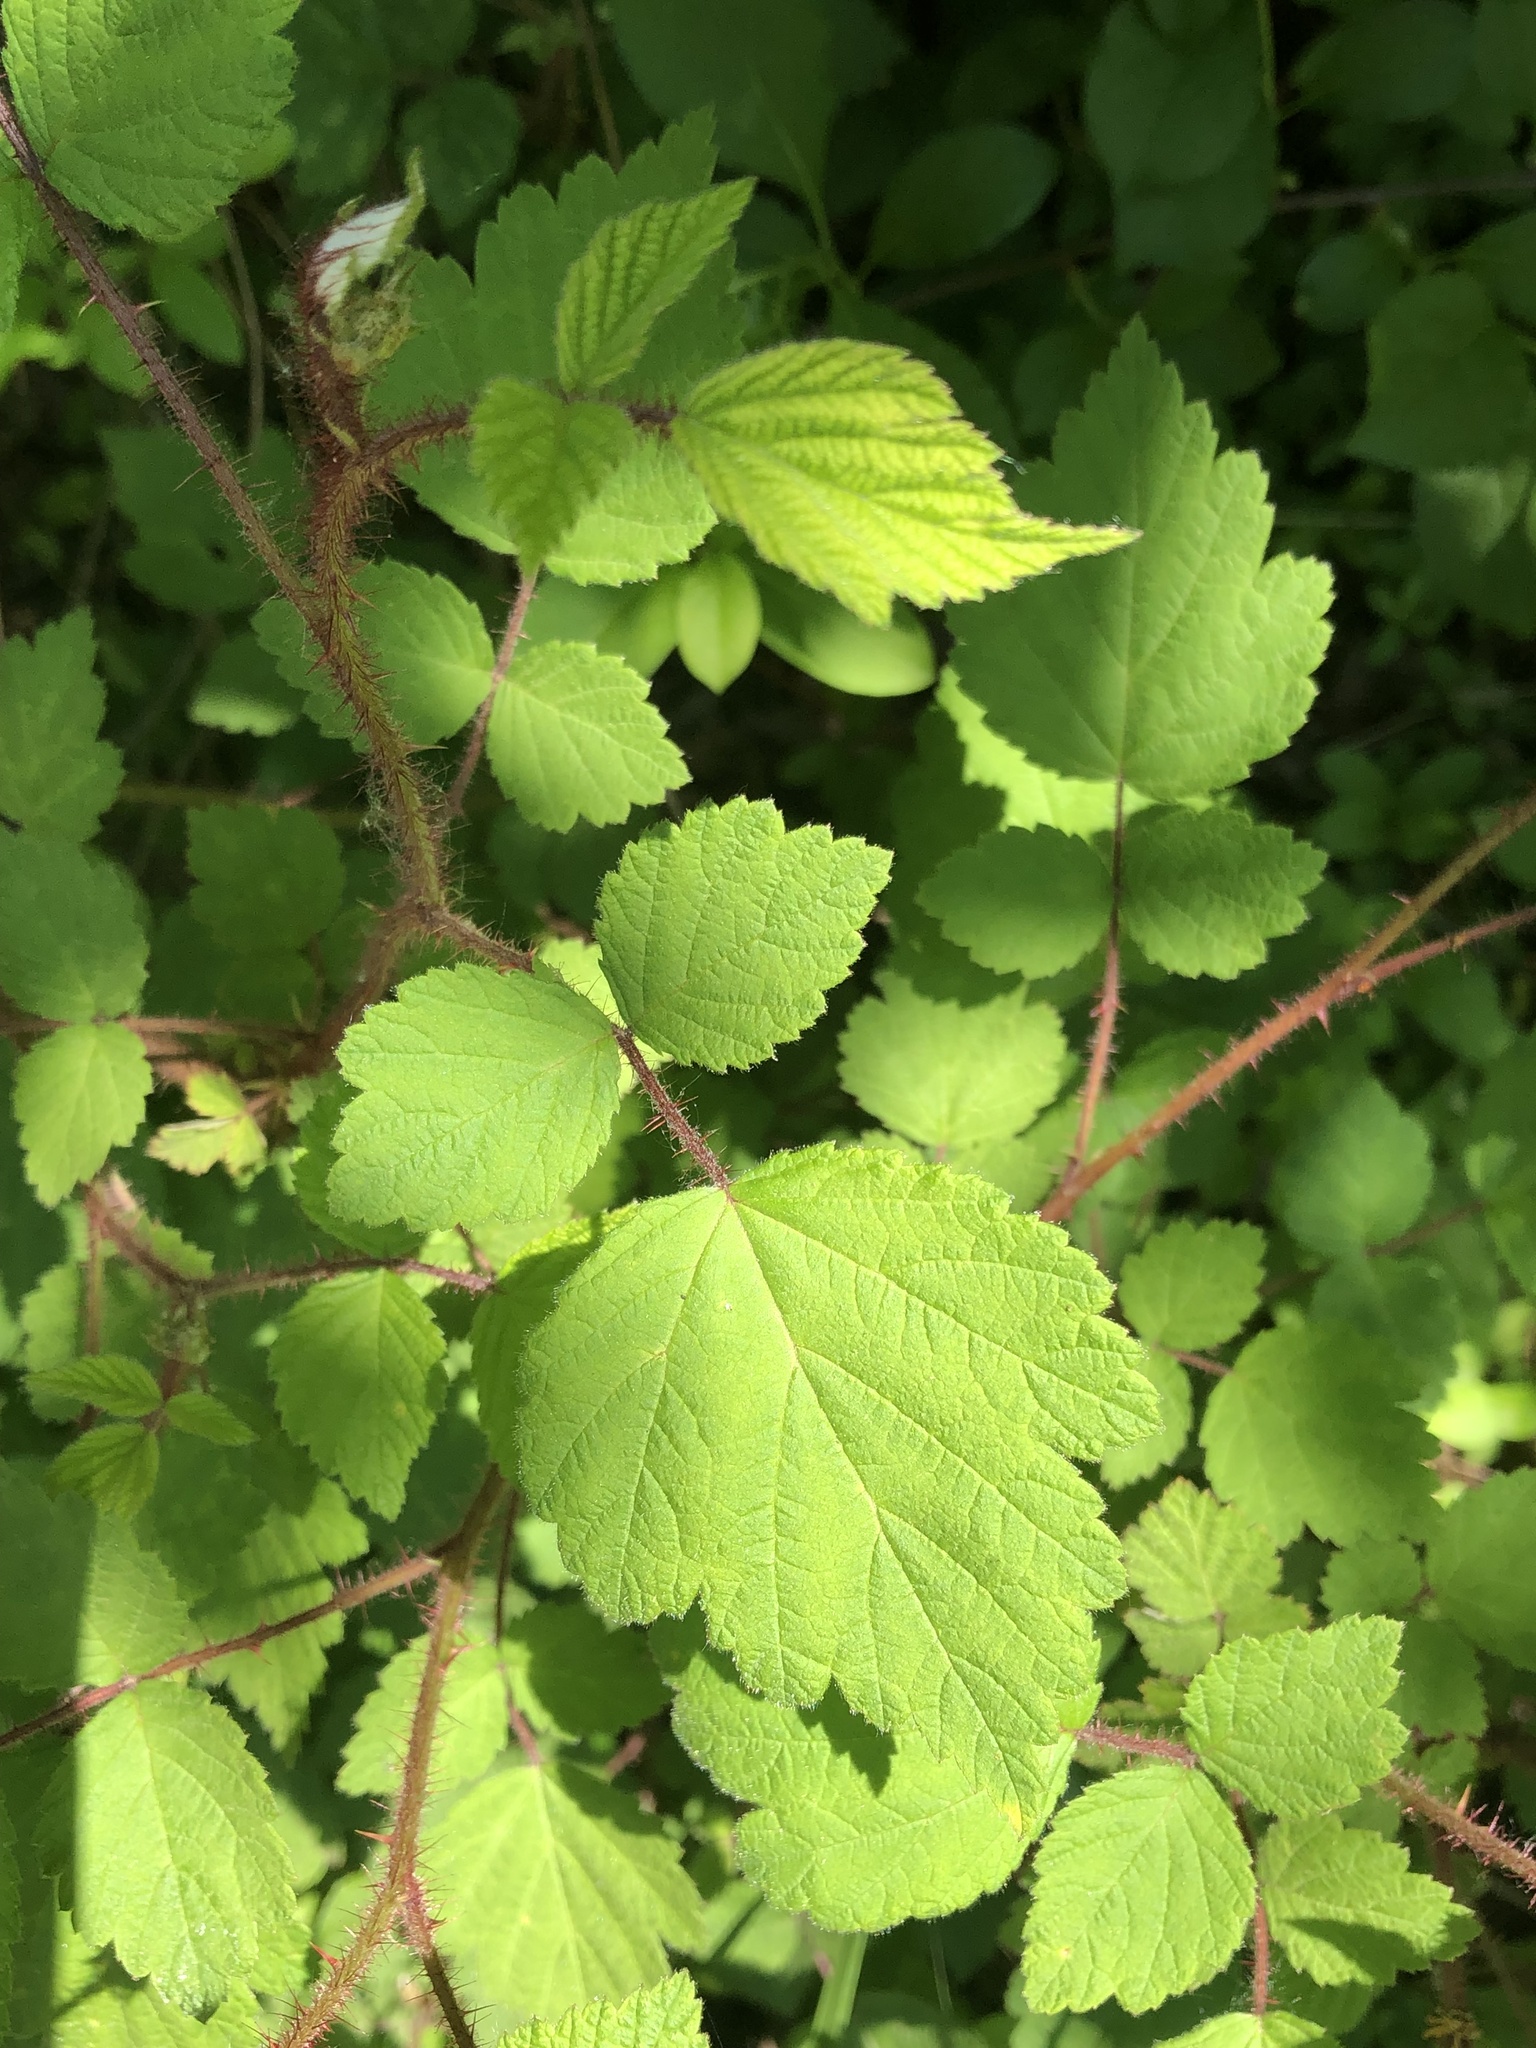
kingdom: Plantae
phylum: Tracheophyta
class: Magnoliopsida
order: Rosales
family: Rosaceae
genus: Rubus
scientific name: Rubus phoenicolasius
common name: Japanese wineberry
